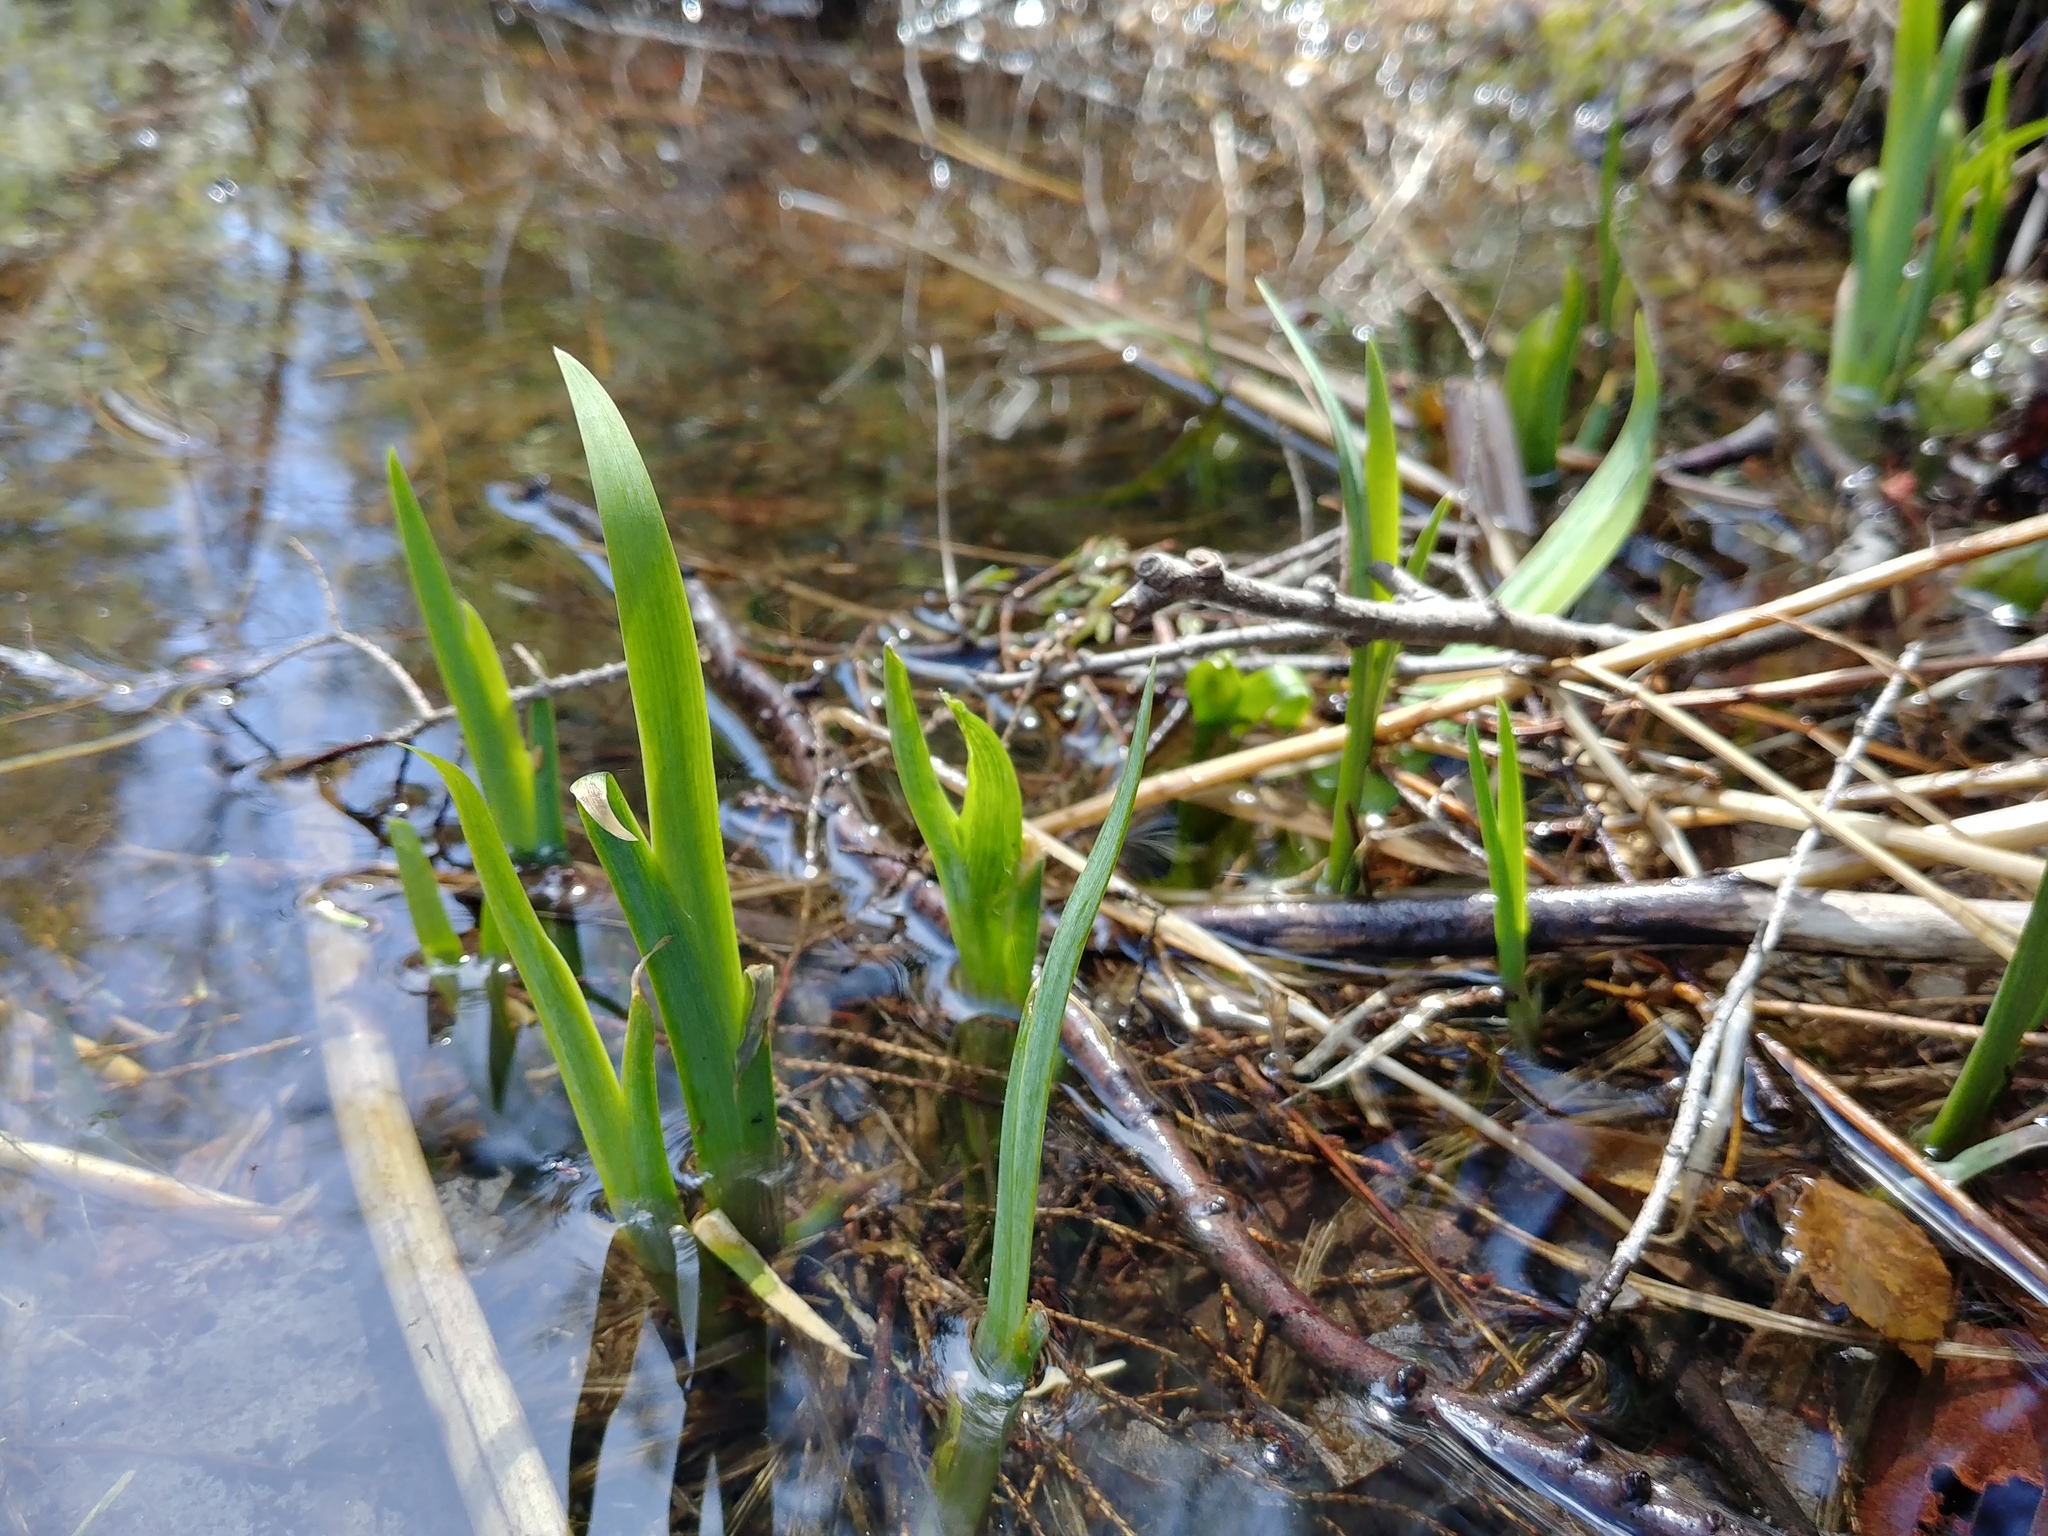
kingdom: Plantae
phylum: Tracheophyta
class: Liliopsida
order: Asparagales
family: Iridaceae
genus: Iris
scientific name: Iris versicolor
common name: Purple iris
